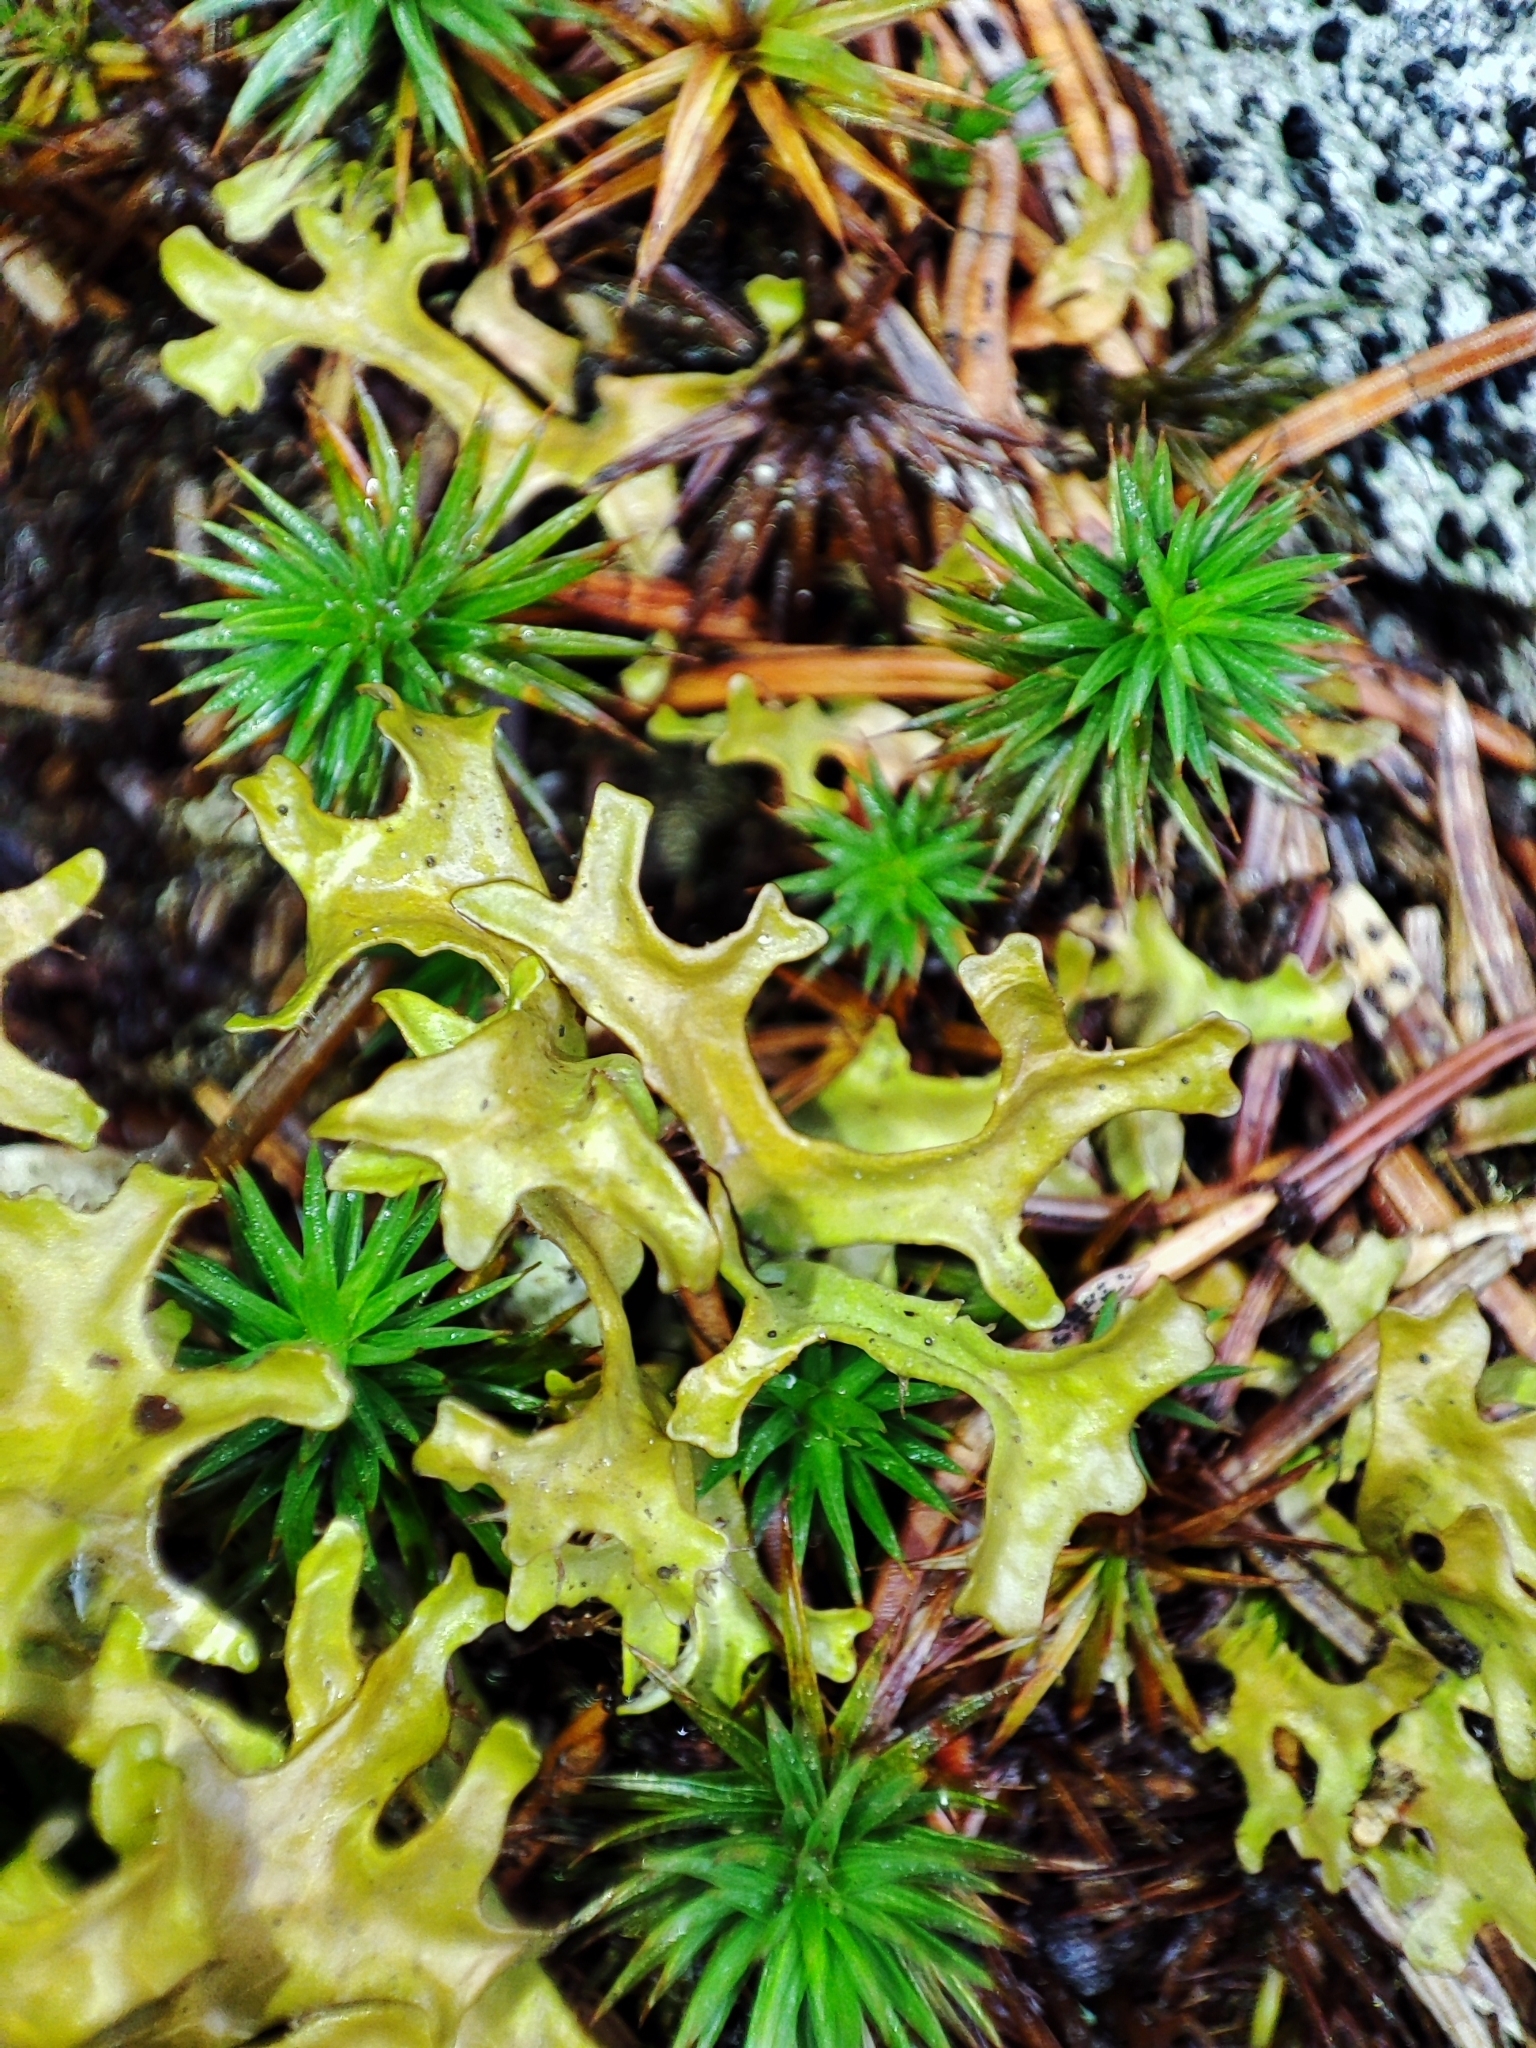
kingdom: Fungi
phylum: Ascomycota
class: Lecanoromycetes
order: Lecanorales
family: Parmeliaceae
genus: Cetraria
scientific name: Cetraria islandica
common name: Iceland lichen
